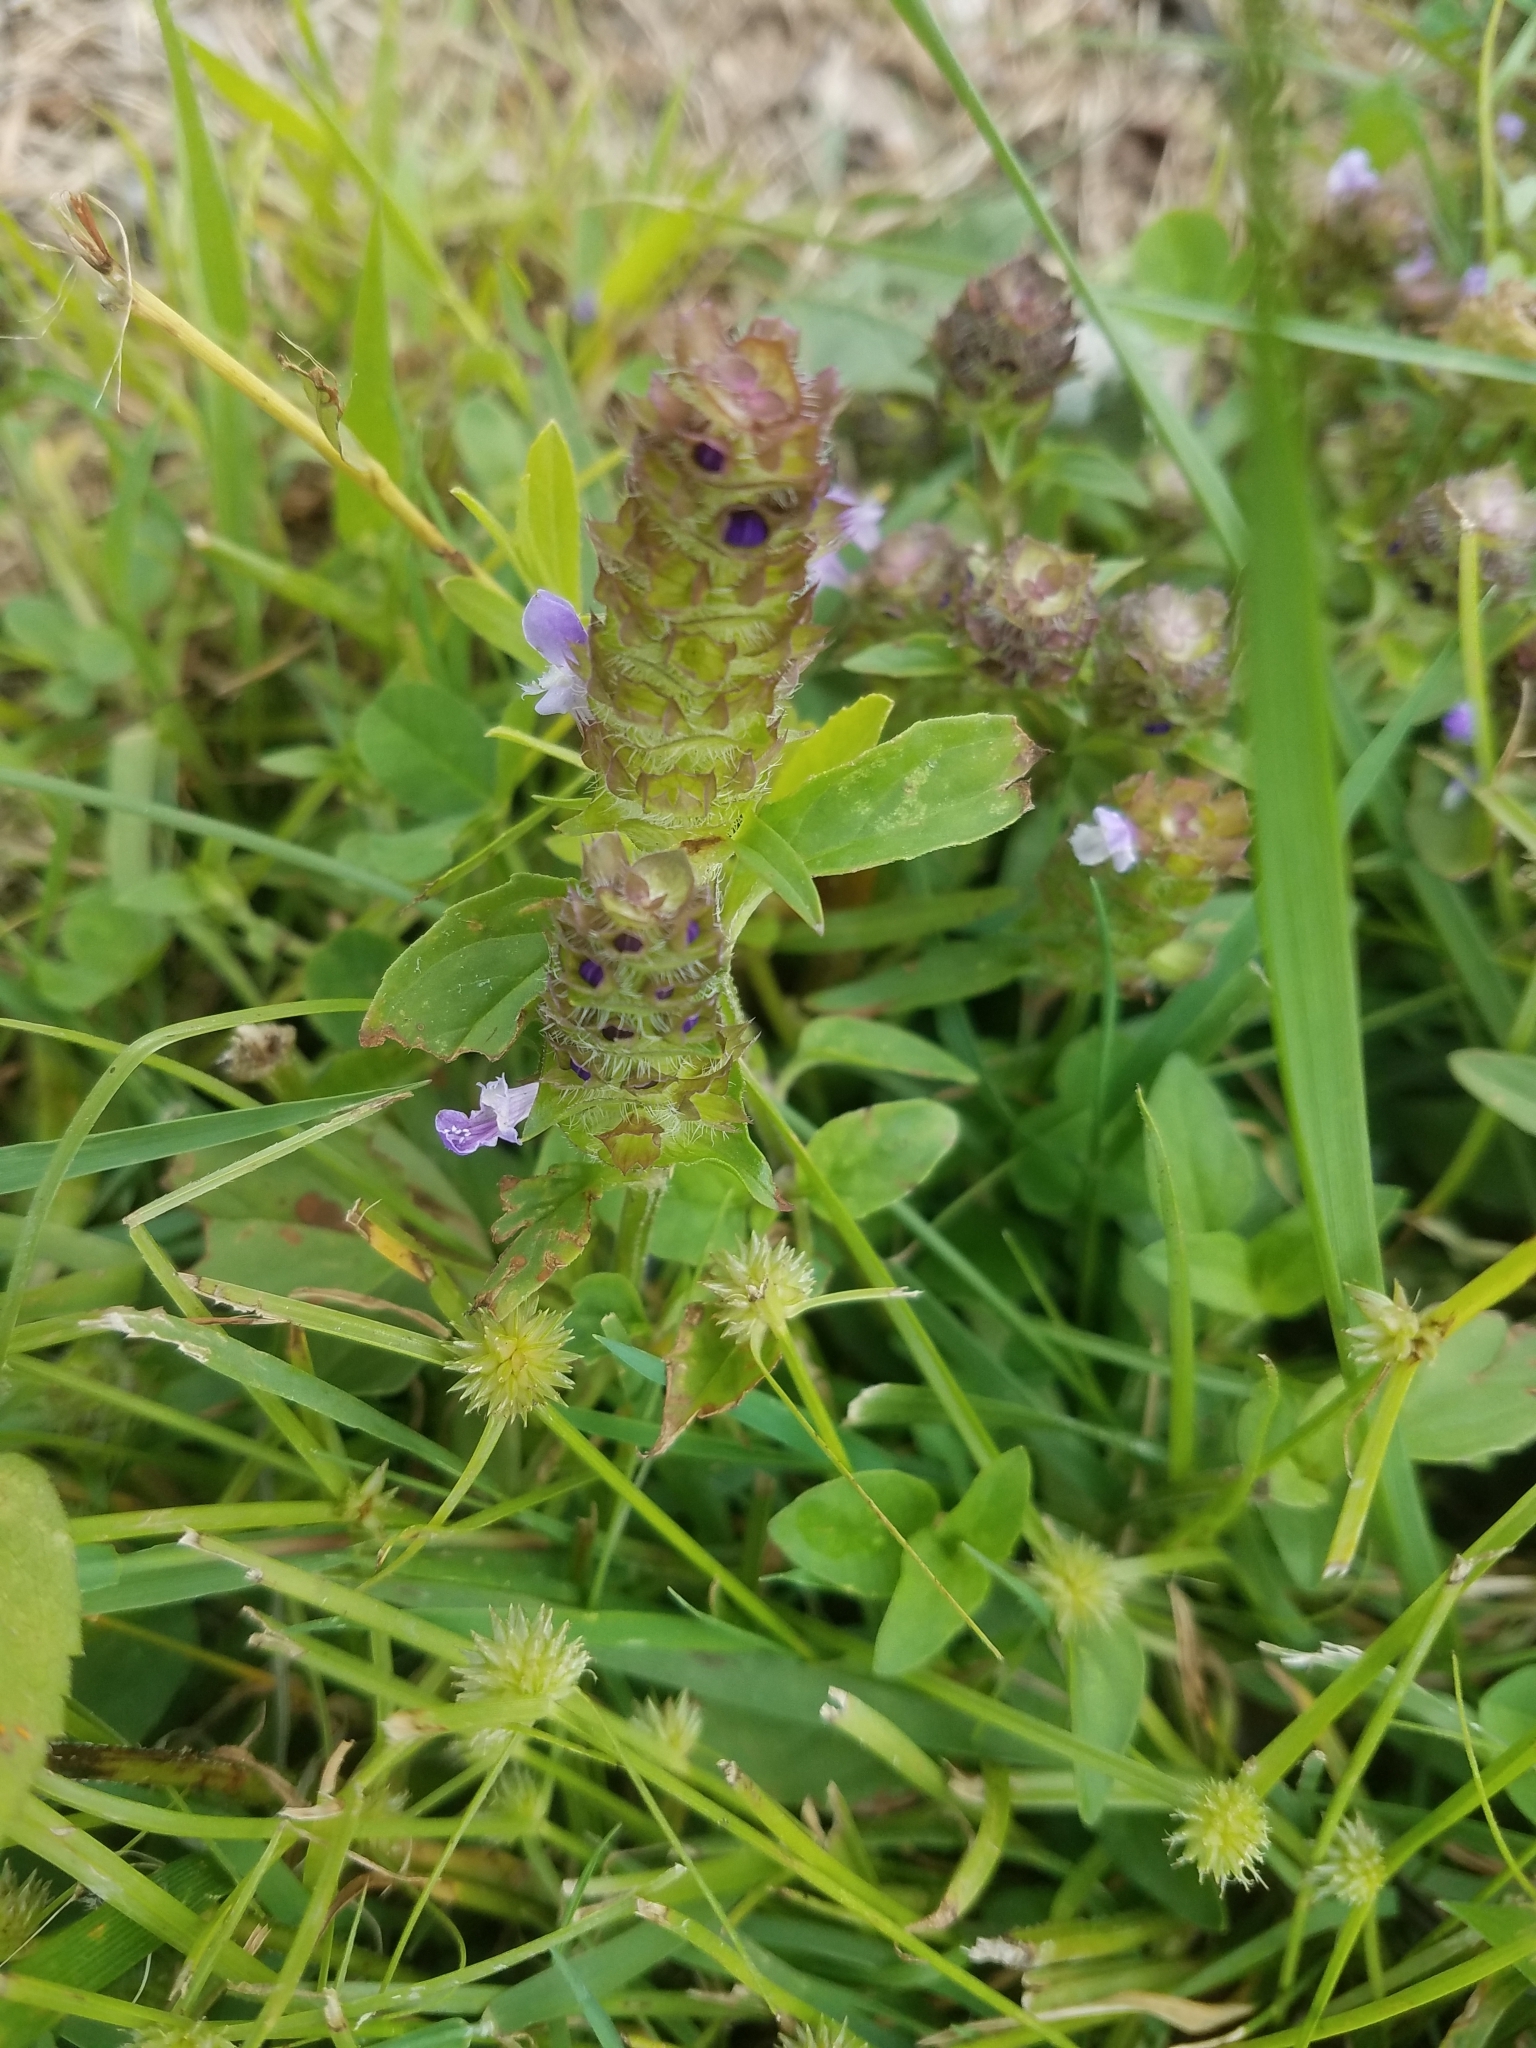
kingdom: Plantae
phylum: Tracheophyta
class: Magnoliopsida
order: Lamiales
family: Lamiaceae
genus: Prunella
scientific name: Prunella vulgaris
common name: Heal-all
